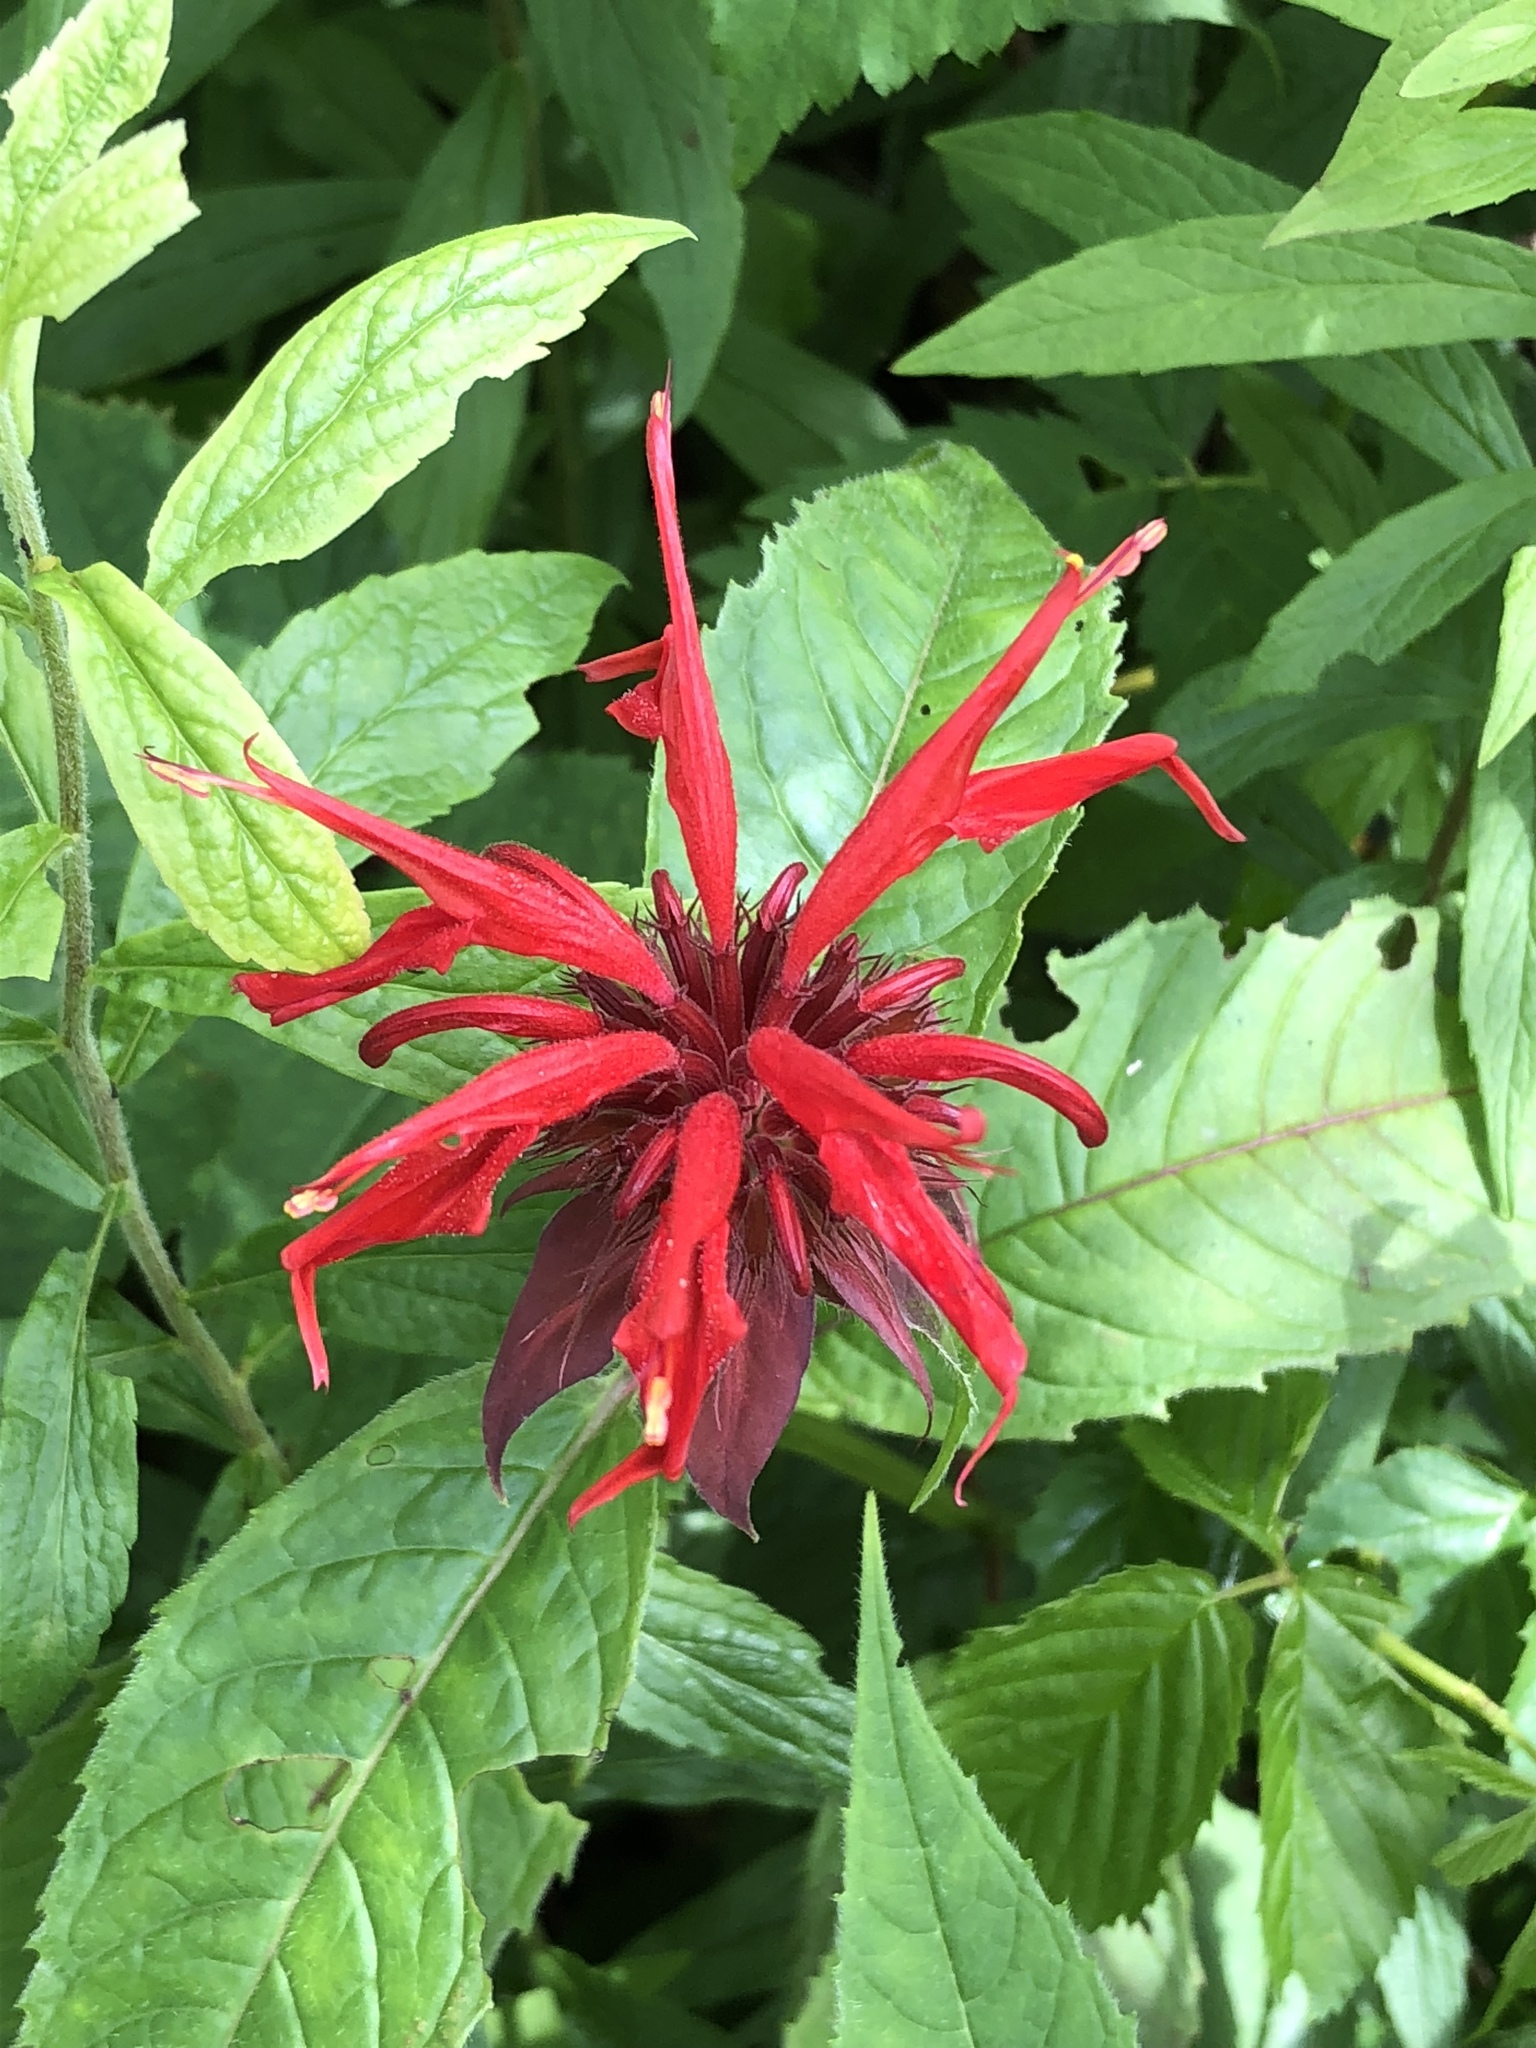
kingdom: Plantae
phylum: Tracheophyta
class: Magnoliopsida
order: Lamiales
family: Lamiaceae
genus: Monarda
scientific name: Monarda didyma
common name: Beebalm
